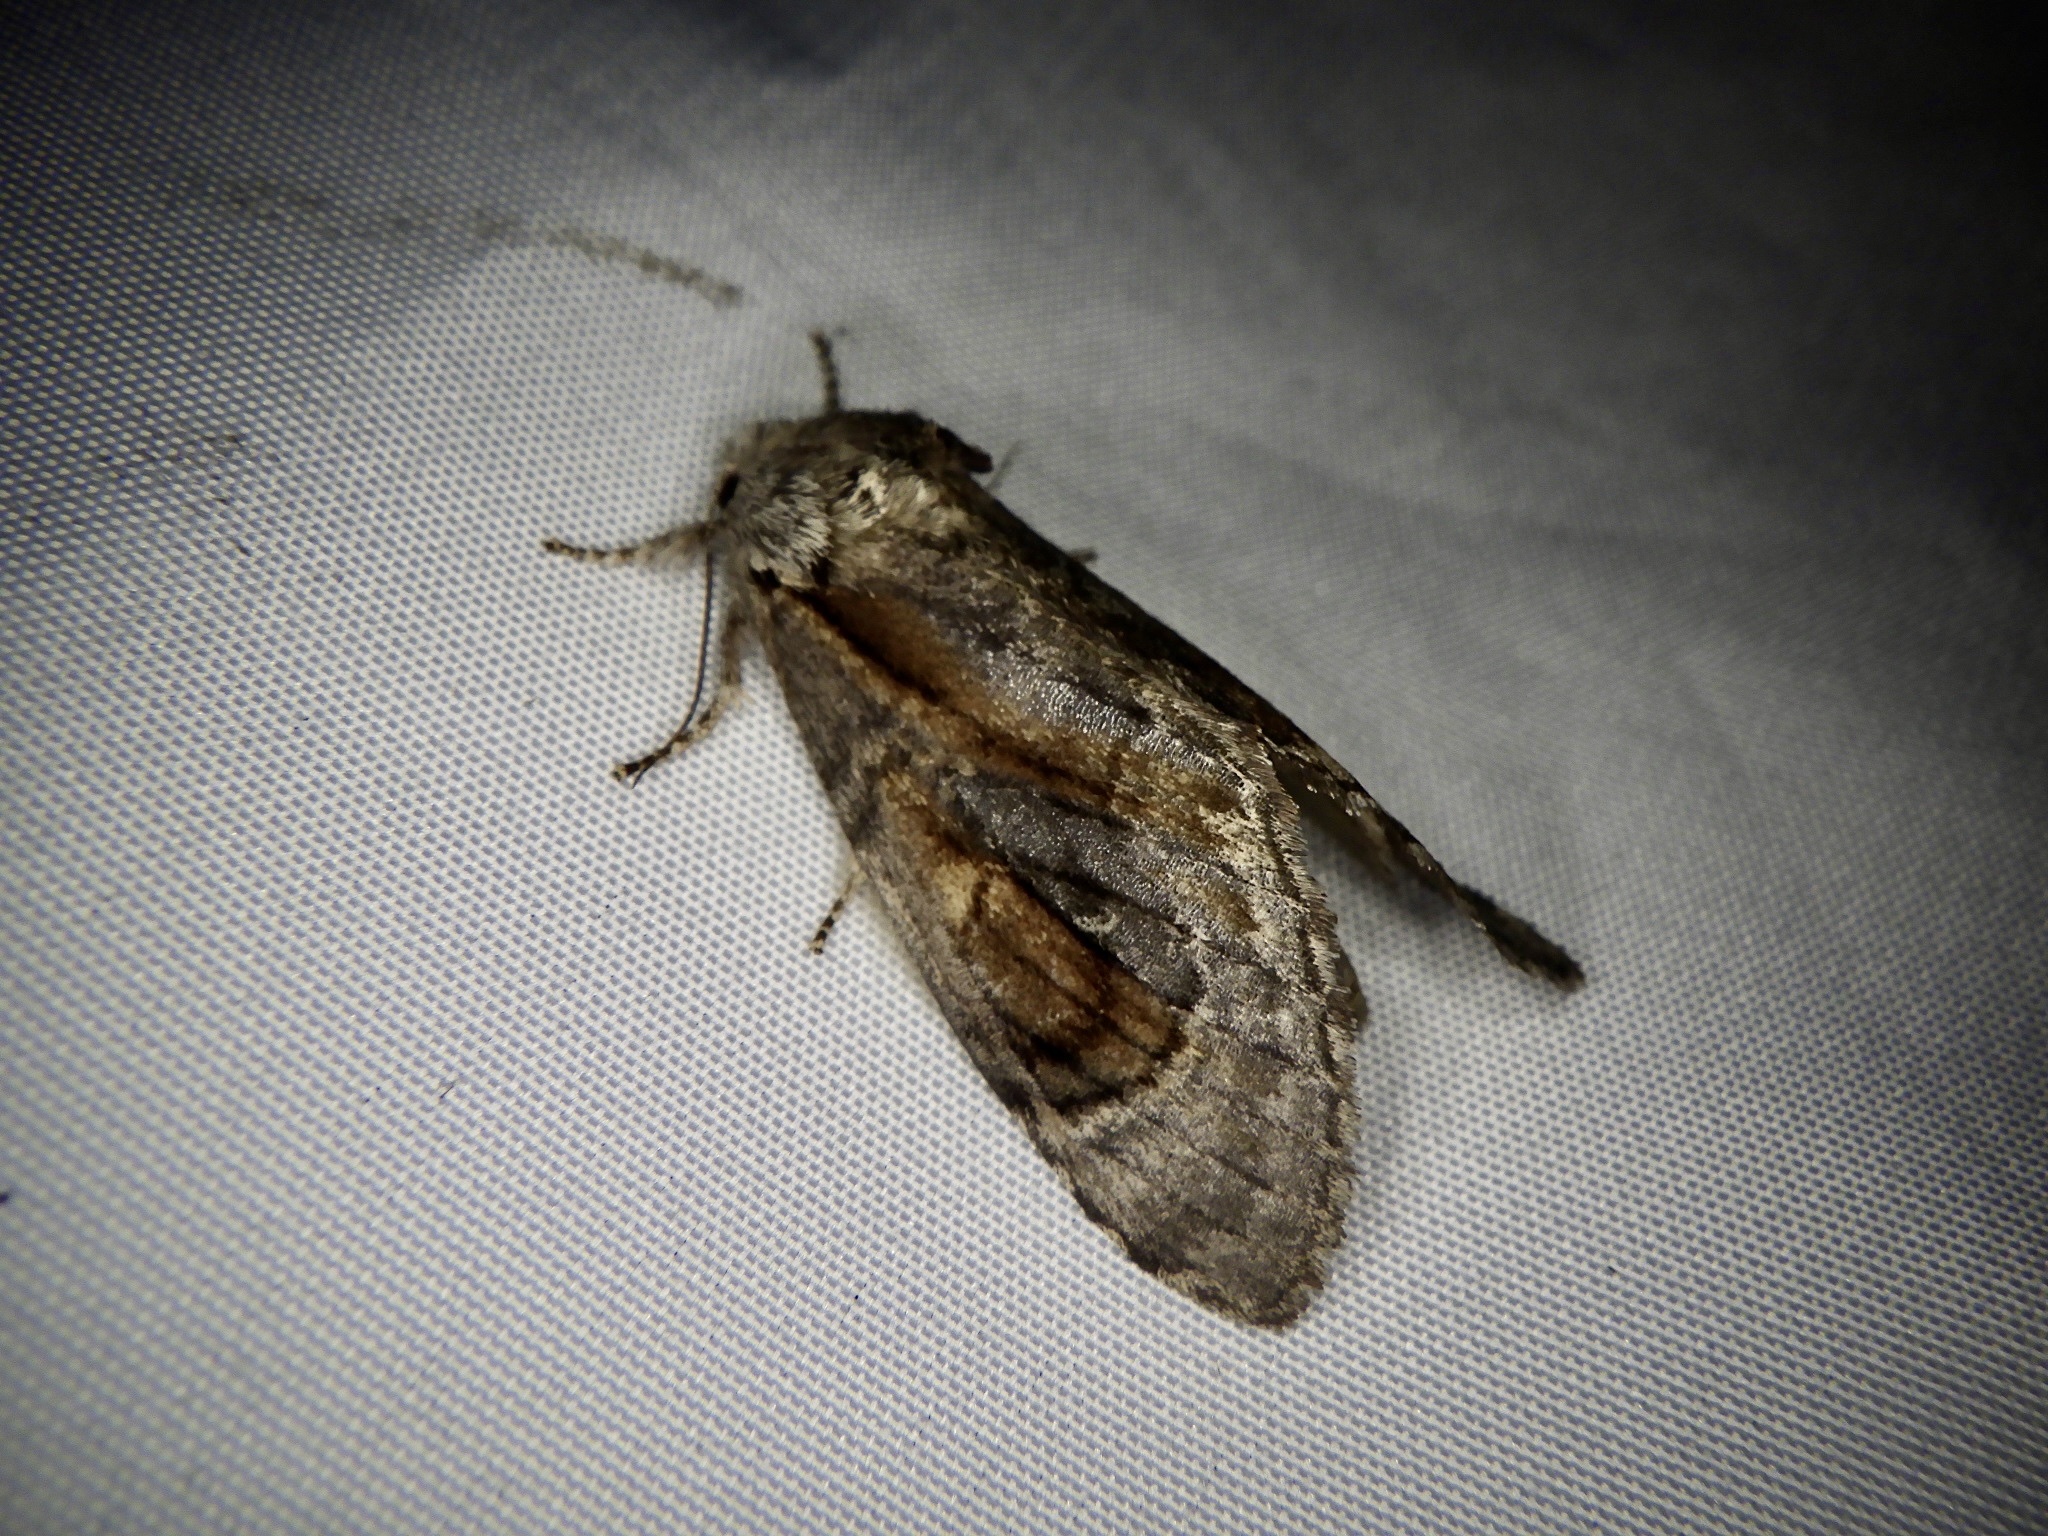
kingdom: Animalia
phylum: Arthropoda
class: Insecta
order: Lepidoptera
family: Notodontidae
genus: Fentonia
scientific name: Fentonia ocypete
